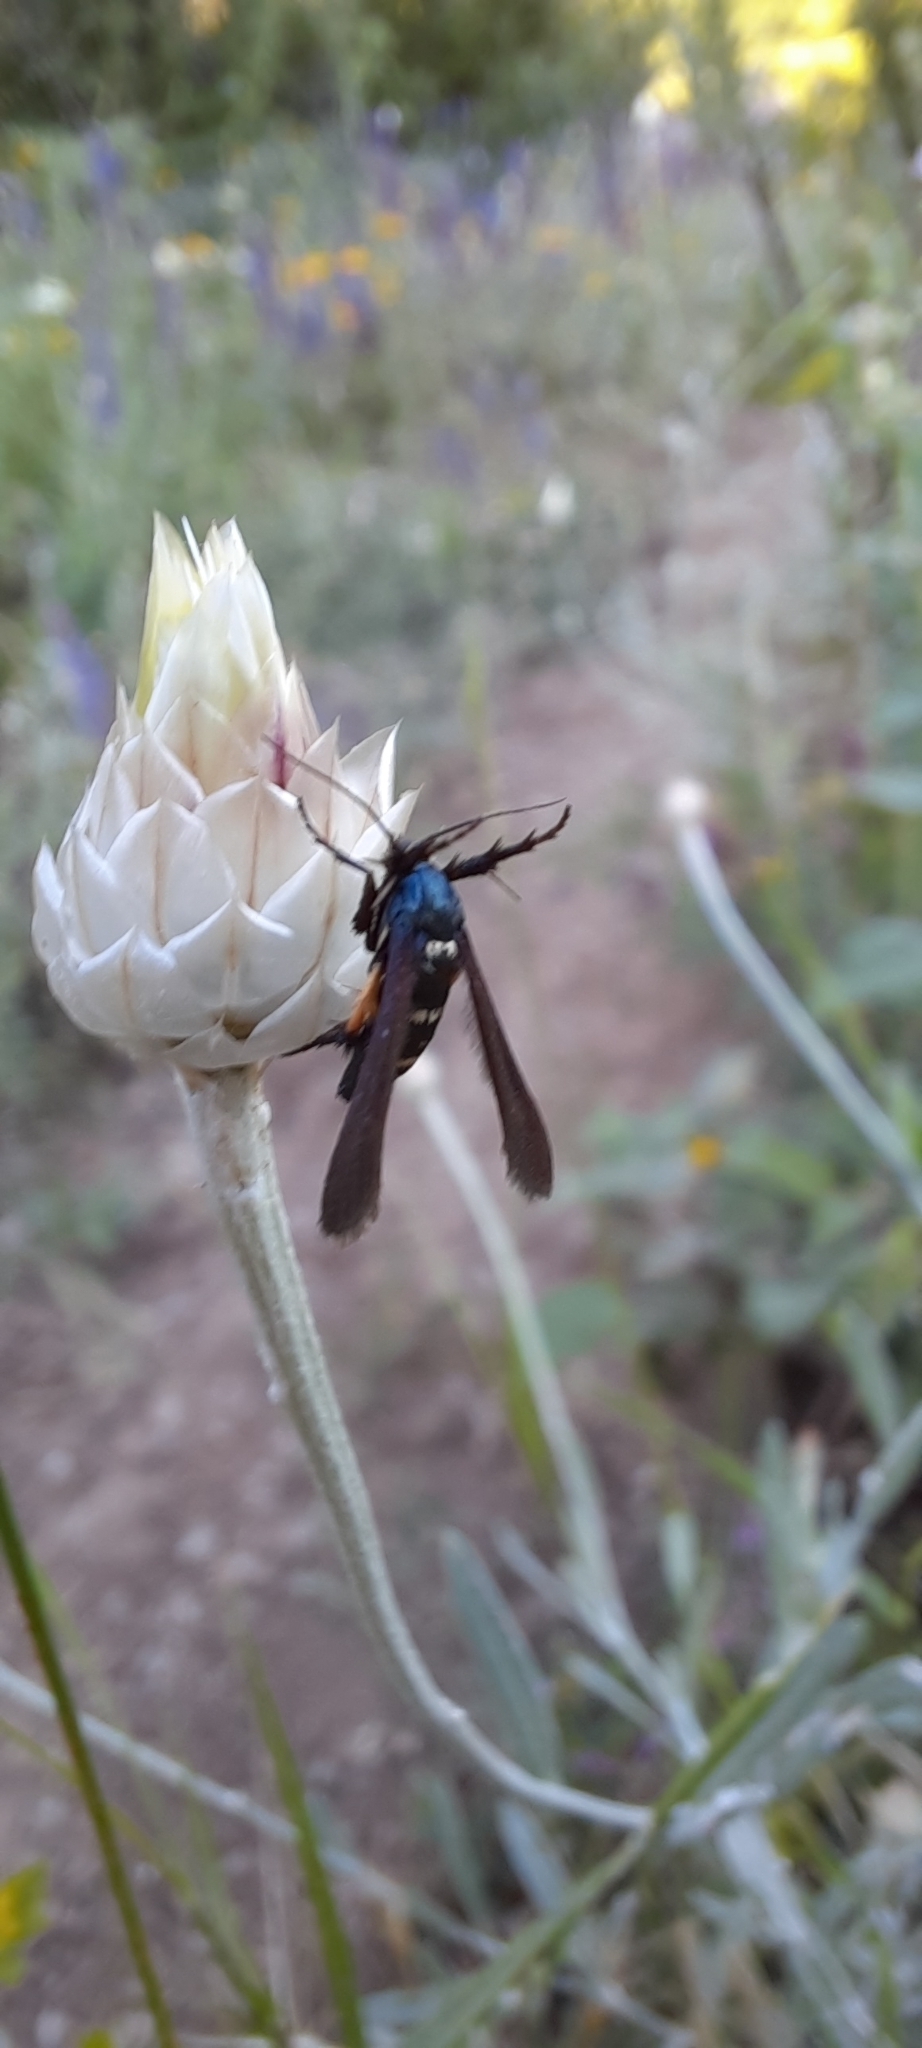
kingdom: Animalia
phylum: Arthropoda
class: Insecta
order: Lepidoptera
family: Sesiidae
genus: Negotinthia
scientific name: Negotinthia myrmosaeformis
